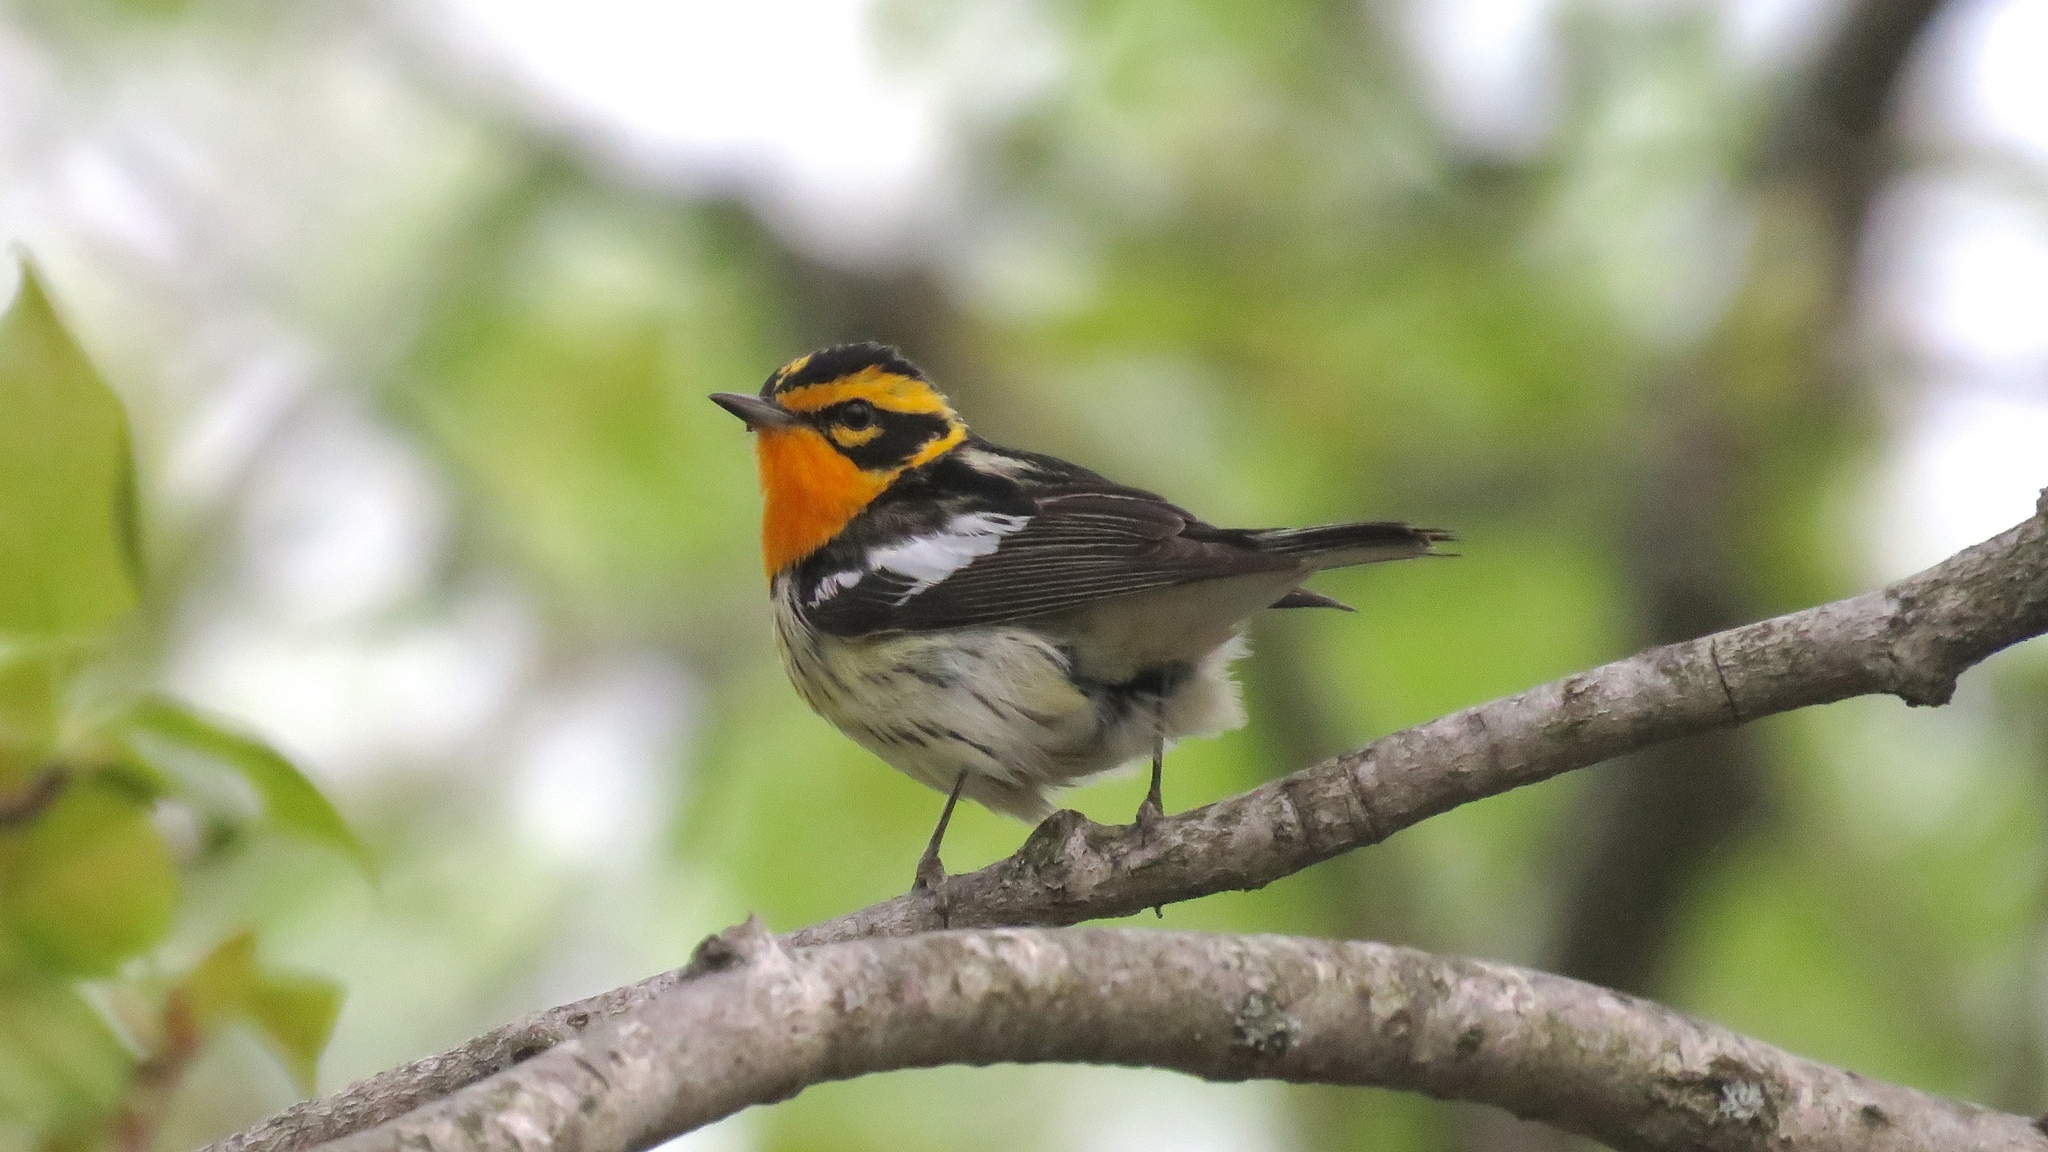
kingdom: Animalia
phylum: Chordata
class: Aves
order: Passeriformes
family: Parulidae
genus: Setophaga
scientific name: Setophaga fusca
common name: Blackburnian warbler
